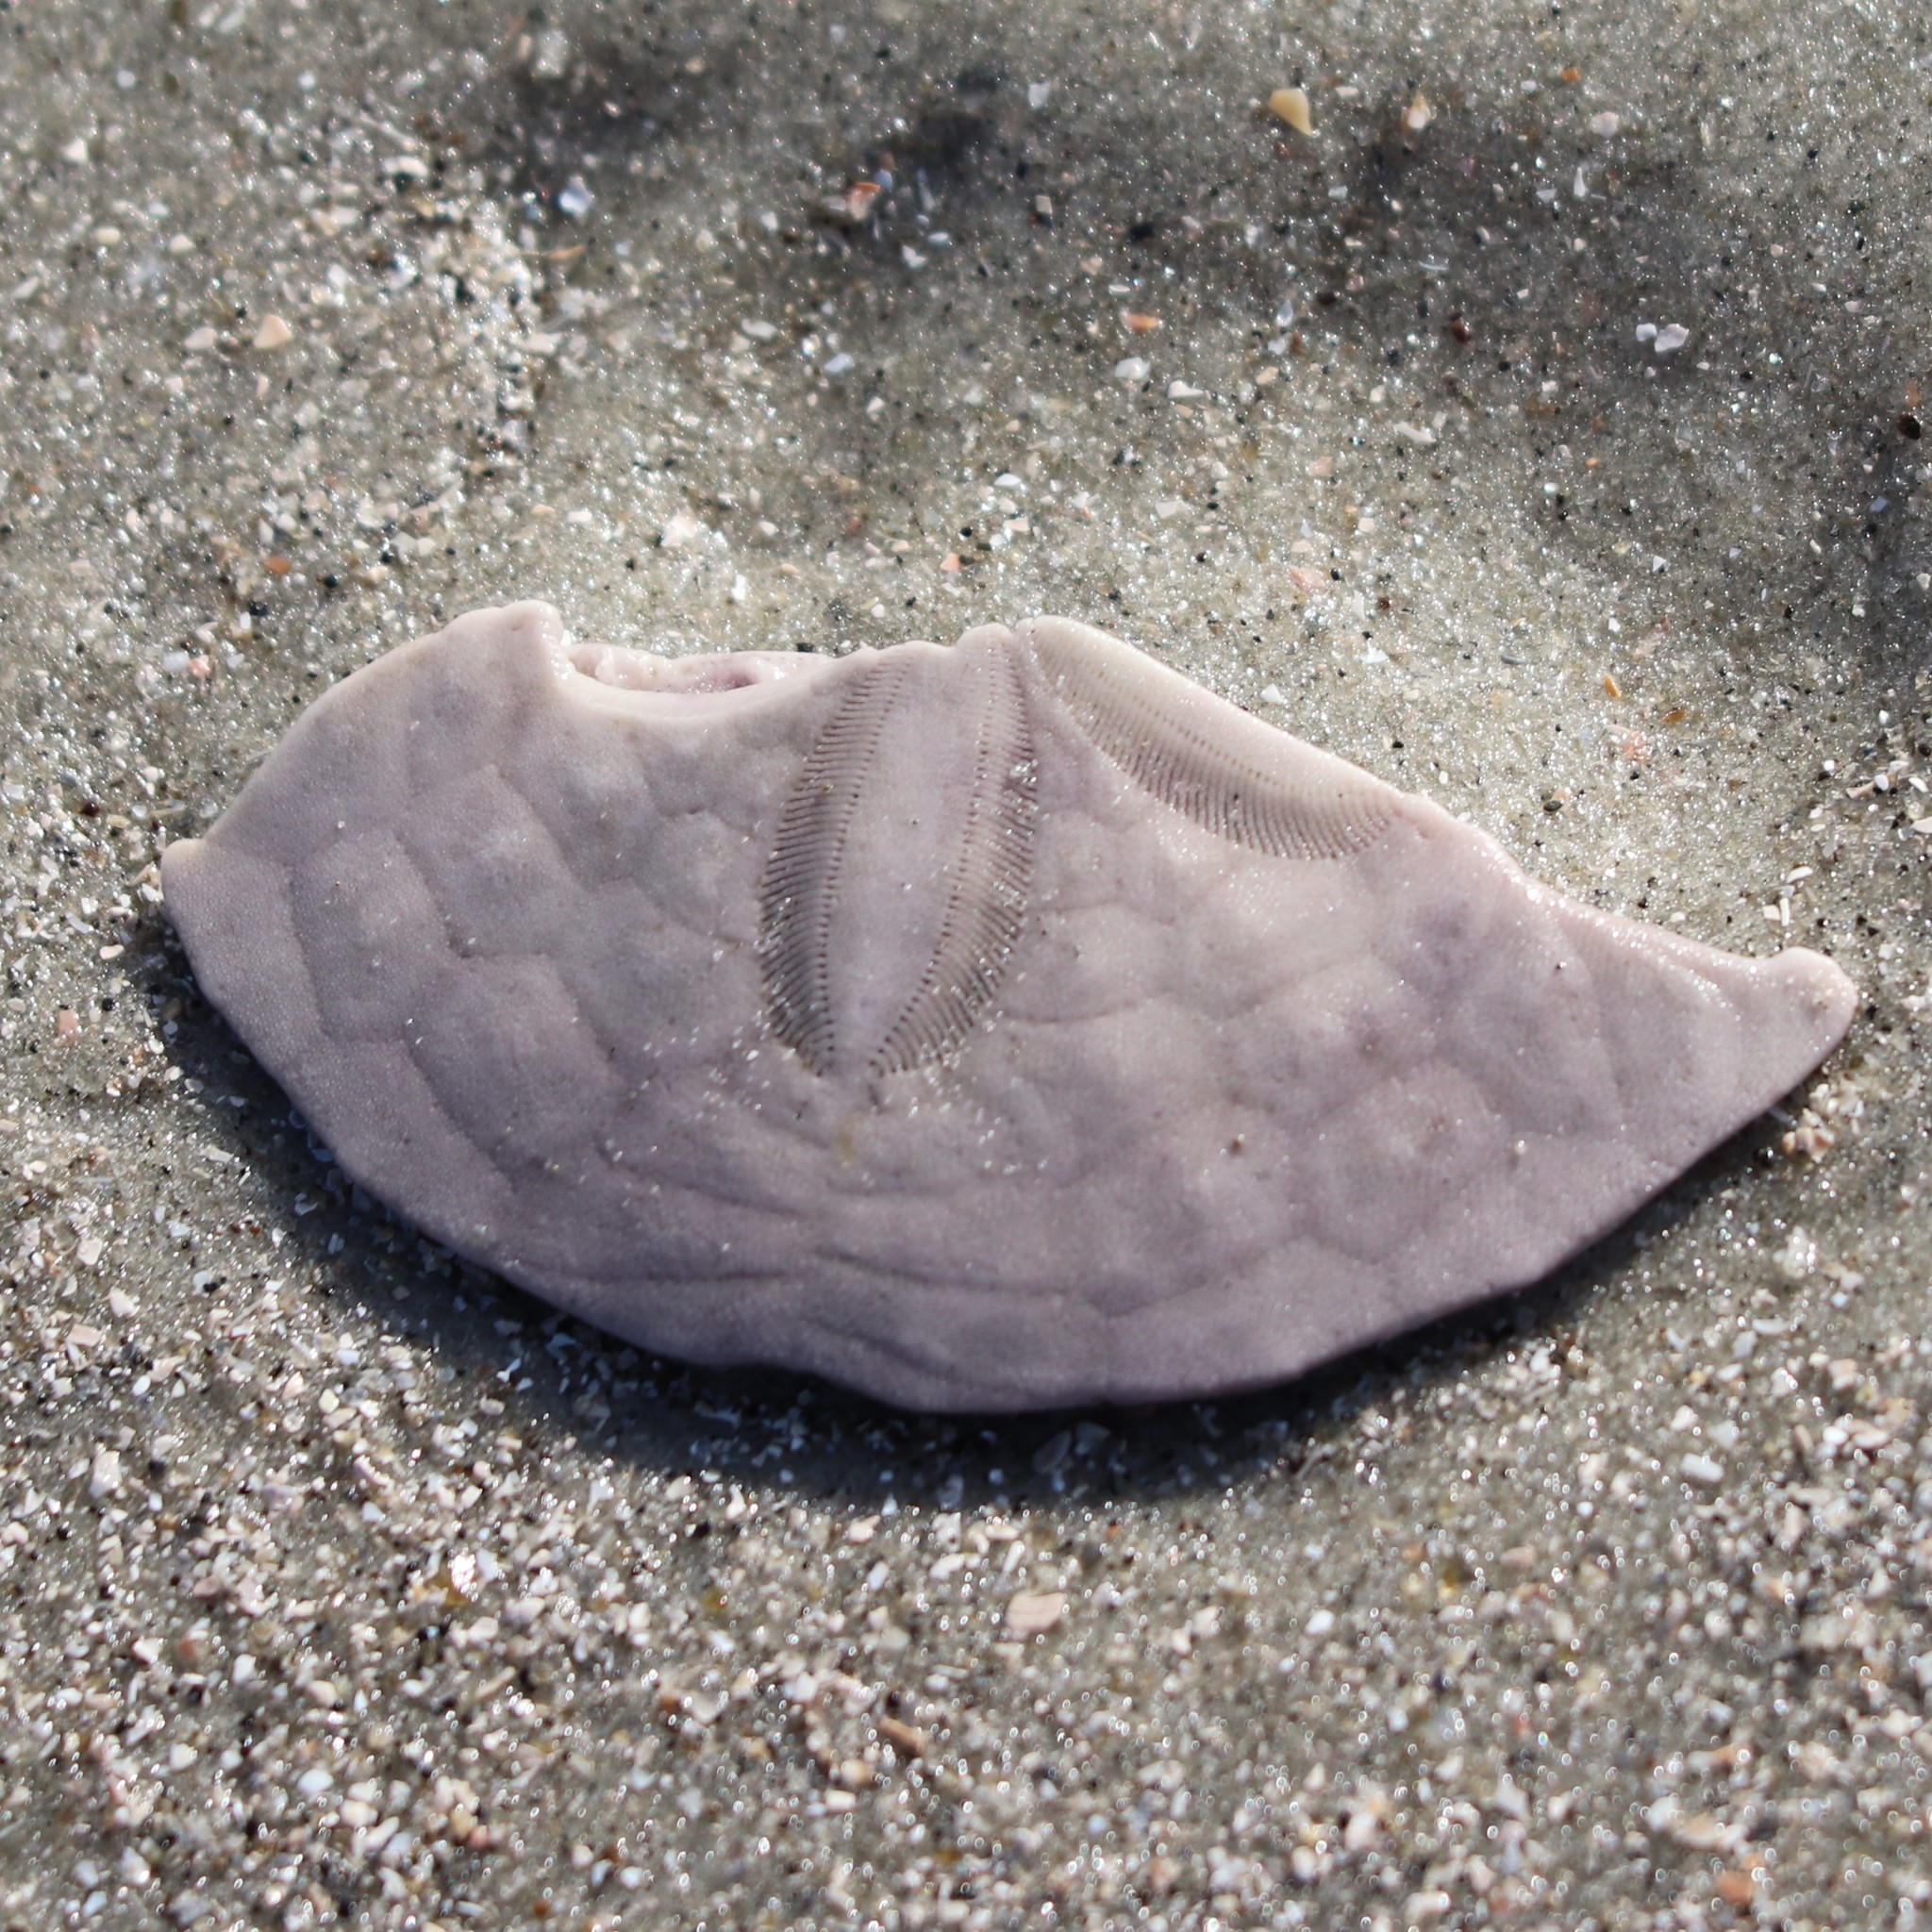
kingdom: Animalia
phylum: Echinodermata
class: Echinoidea
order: Echinolampadacea
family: Mellitidae
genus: Mellita
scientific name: Mellita isometra
